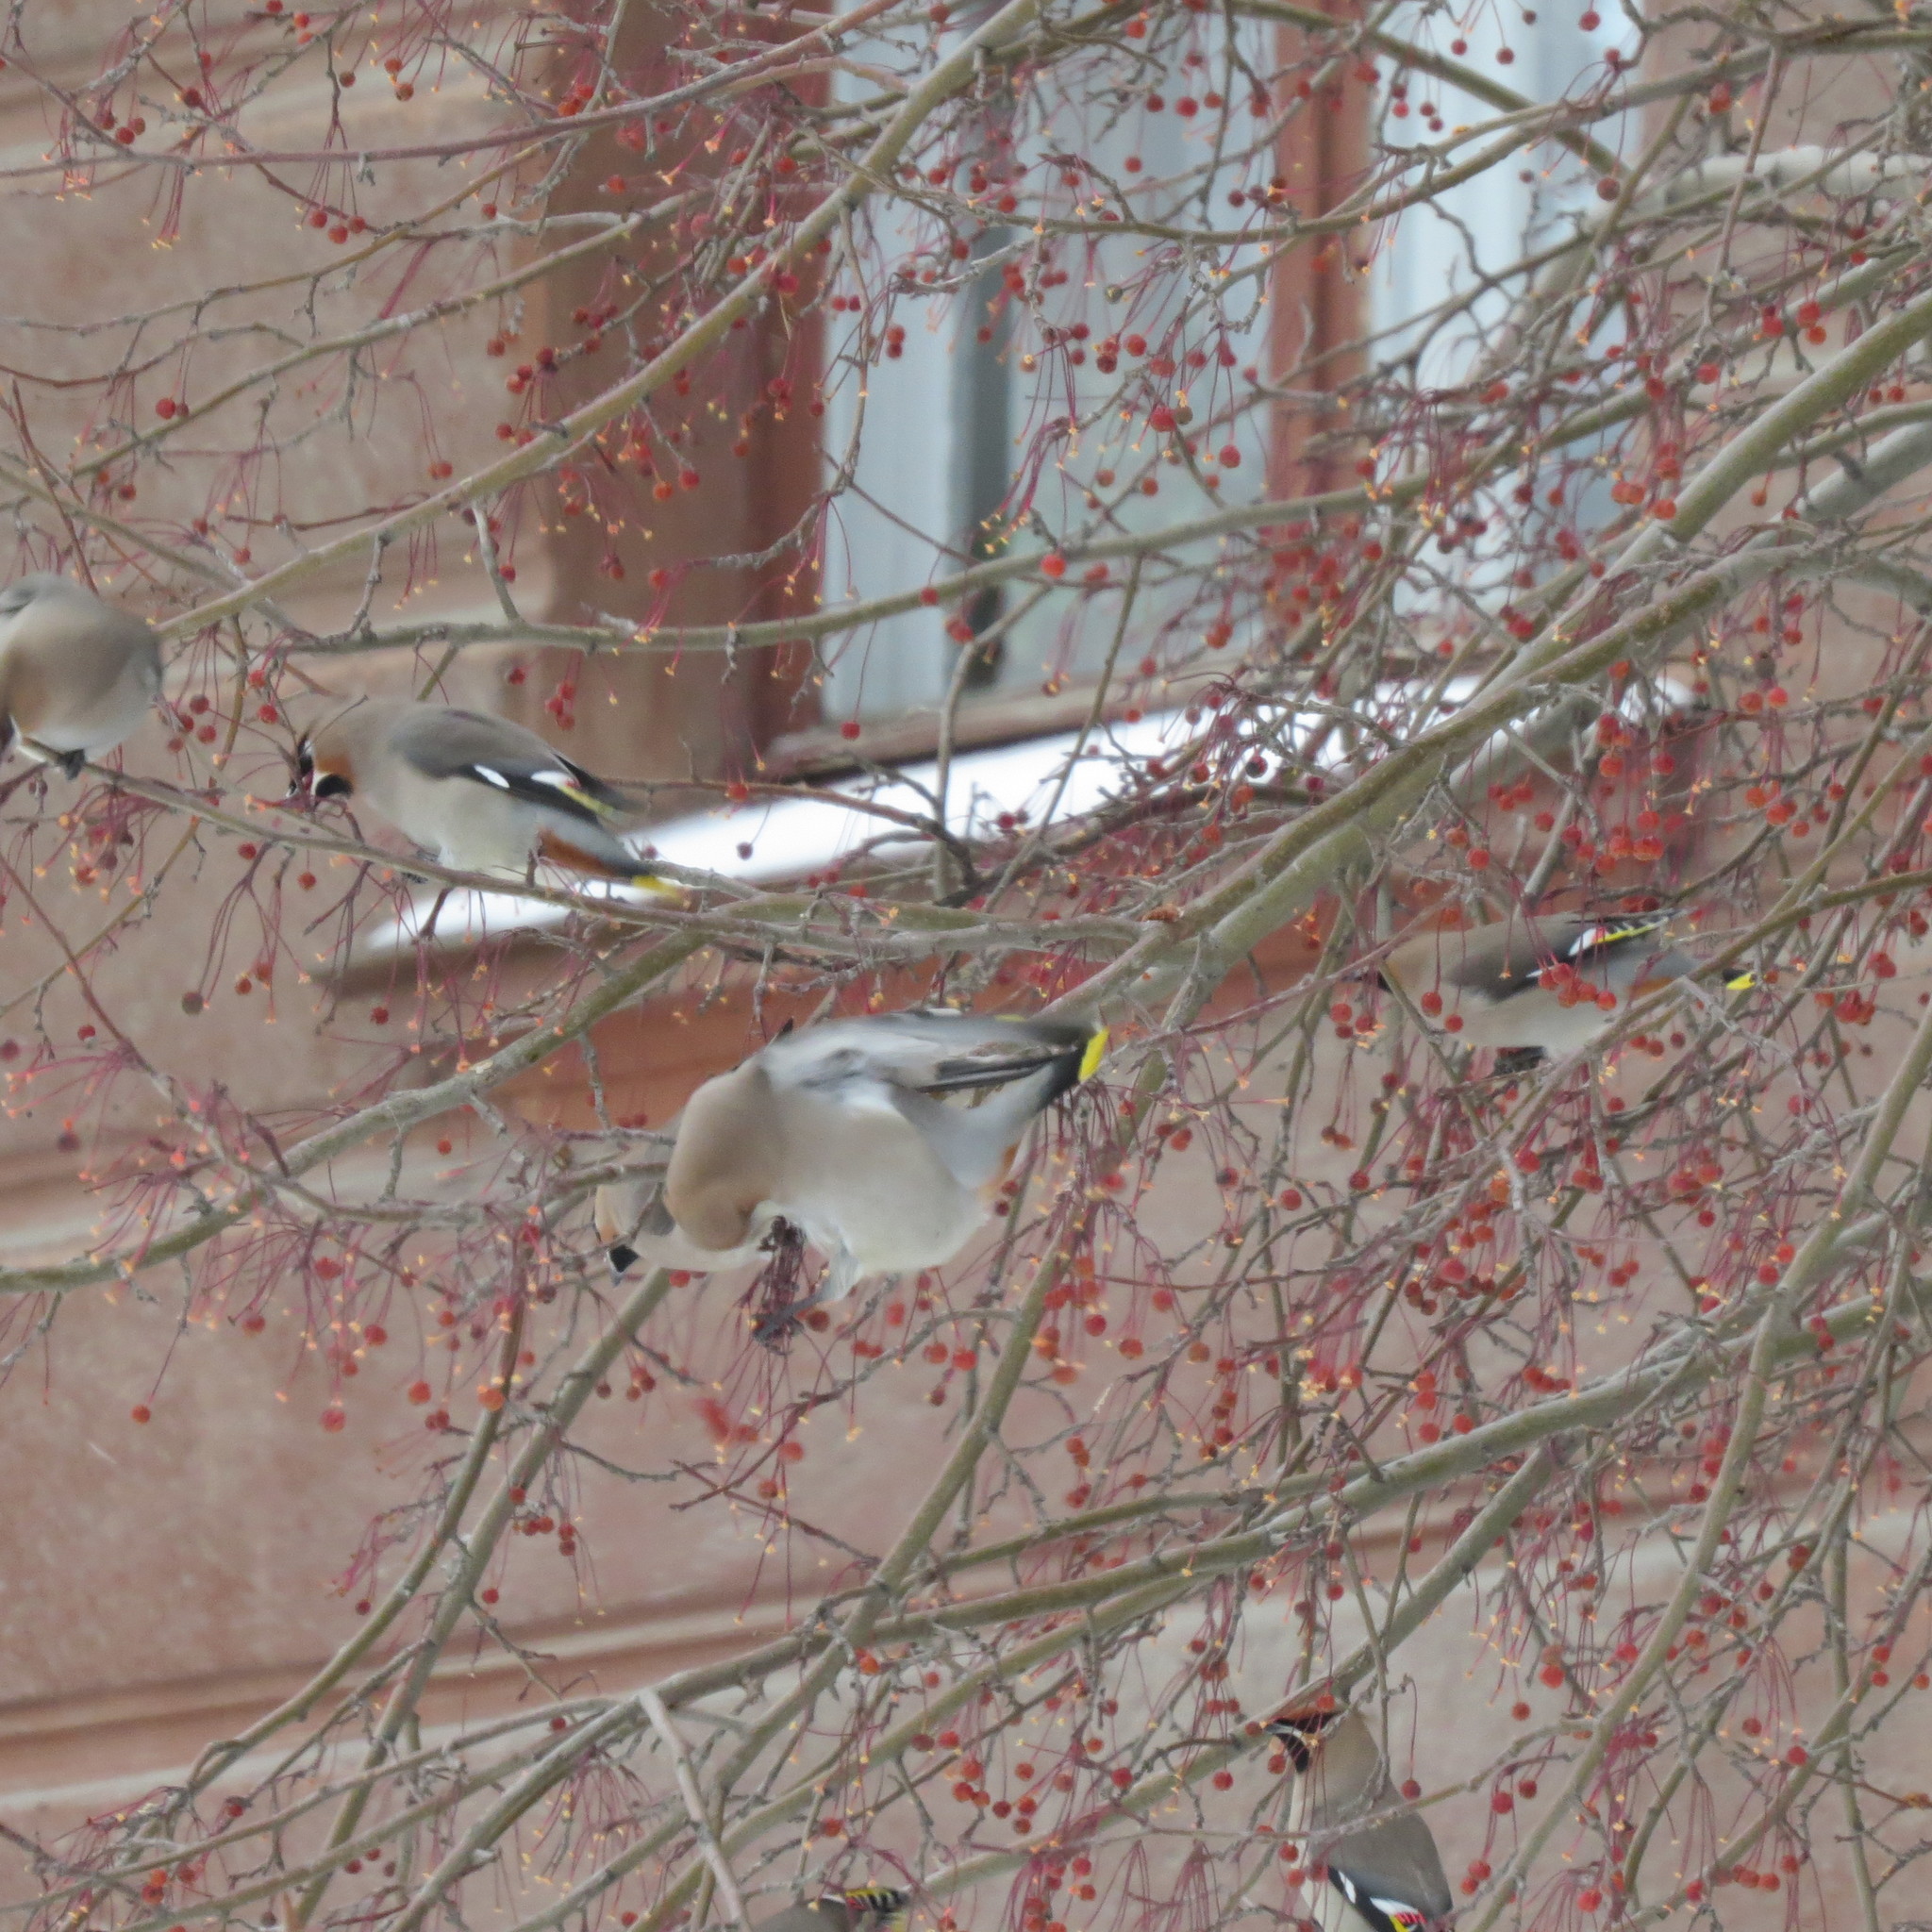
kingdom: Animalia
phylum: Chordata
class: Aves
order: Passeriformes
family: Bombycillidae
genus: Bombycilla
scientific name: Bombycilla garrulus
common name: Bohemian waxwing
